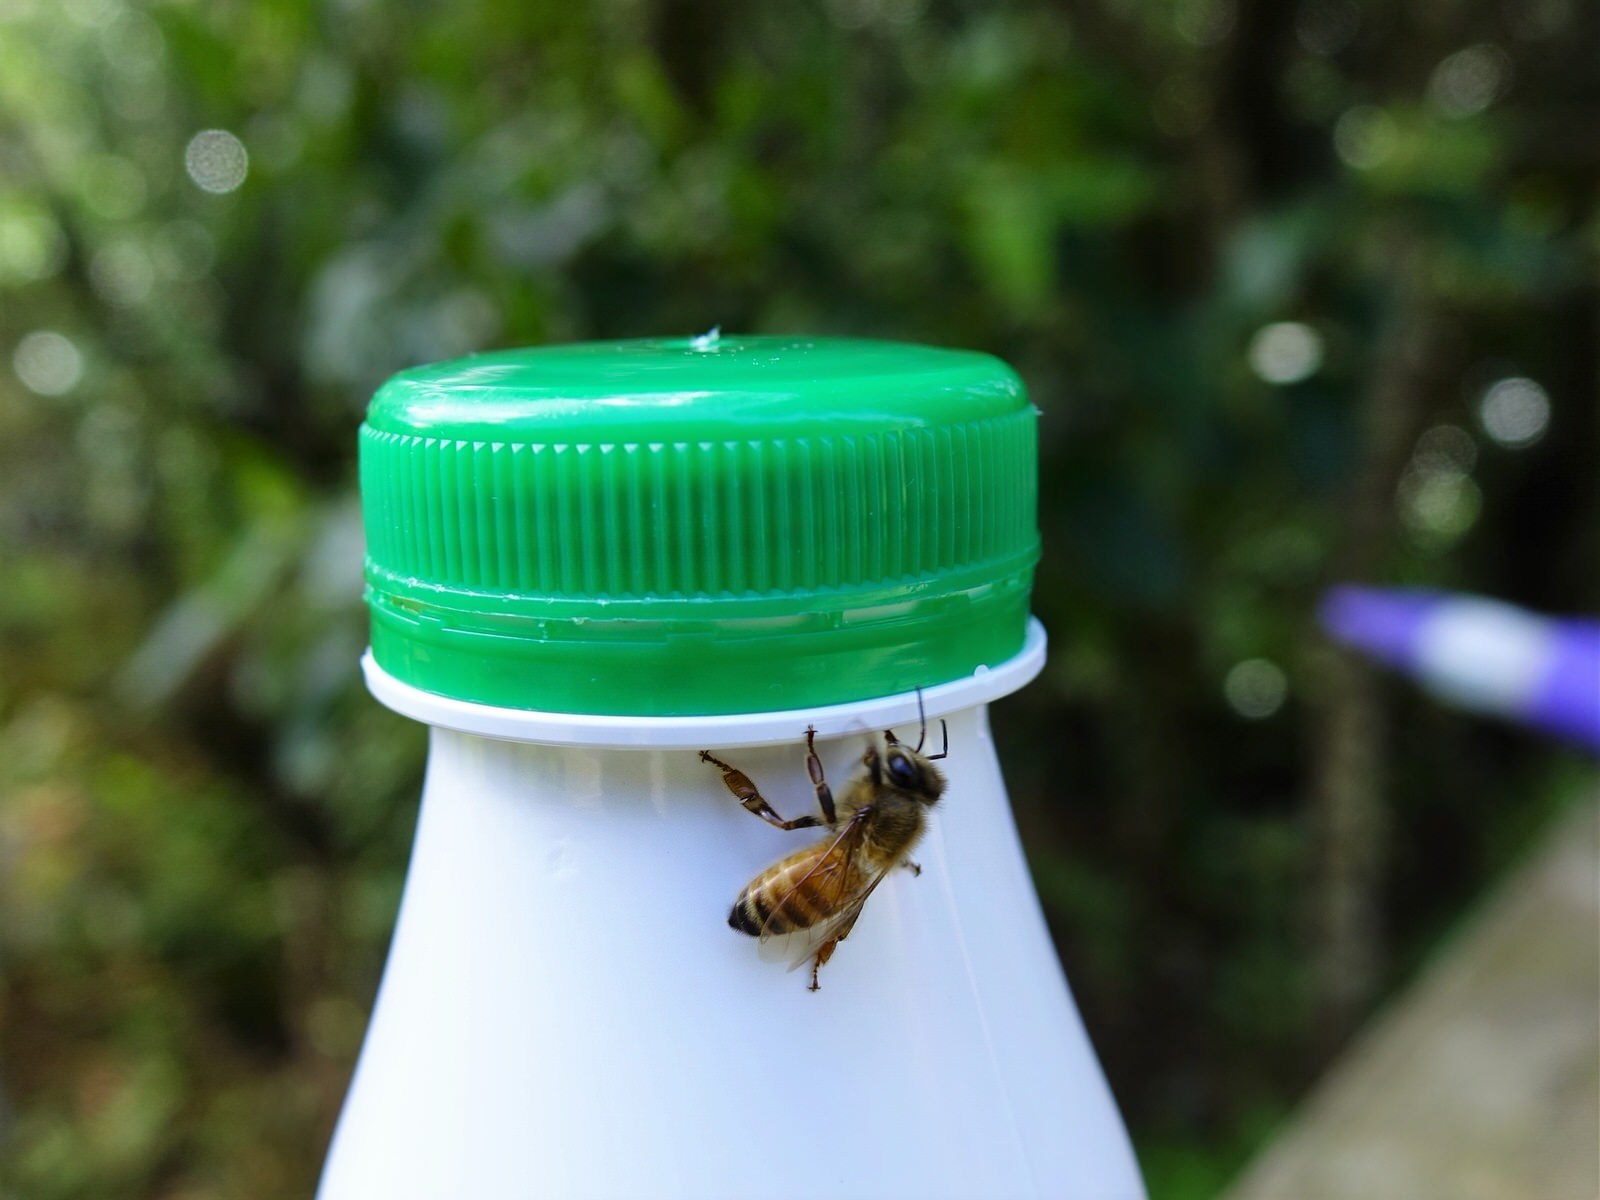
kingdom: Animalia
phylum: Arthropoda
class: Insecta
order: Hymenoptera
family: Apidae
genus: Apis
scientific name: Apis mellifera
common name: Honey bee
